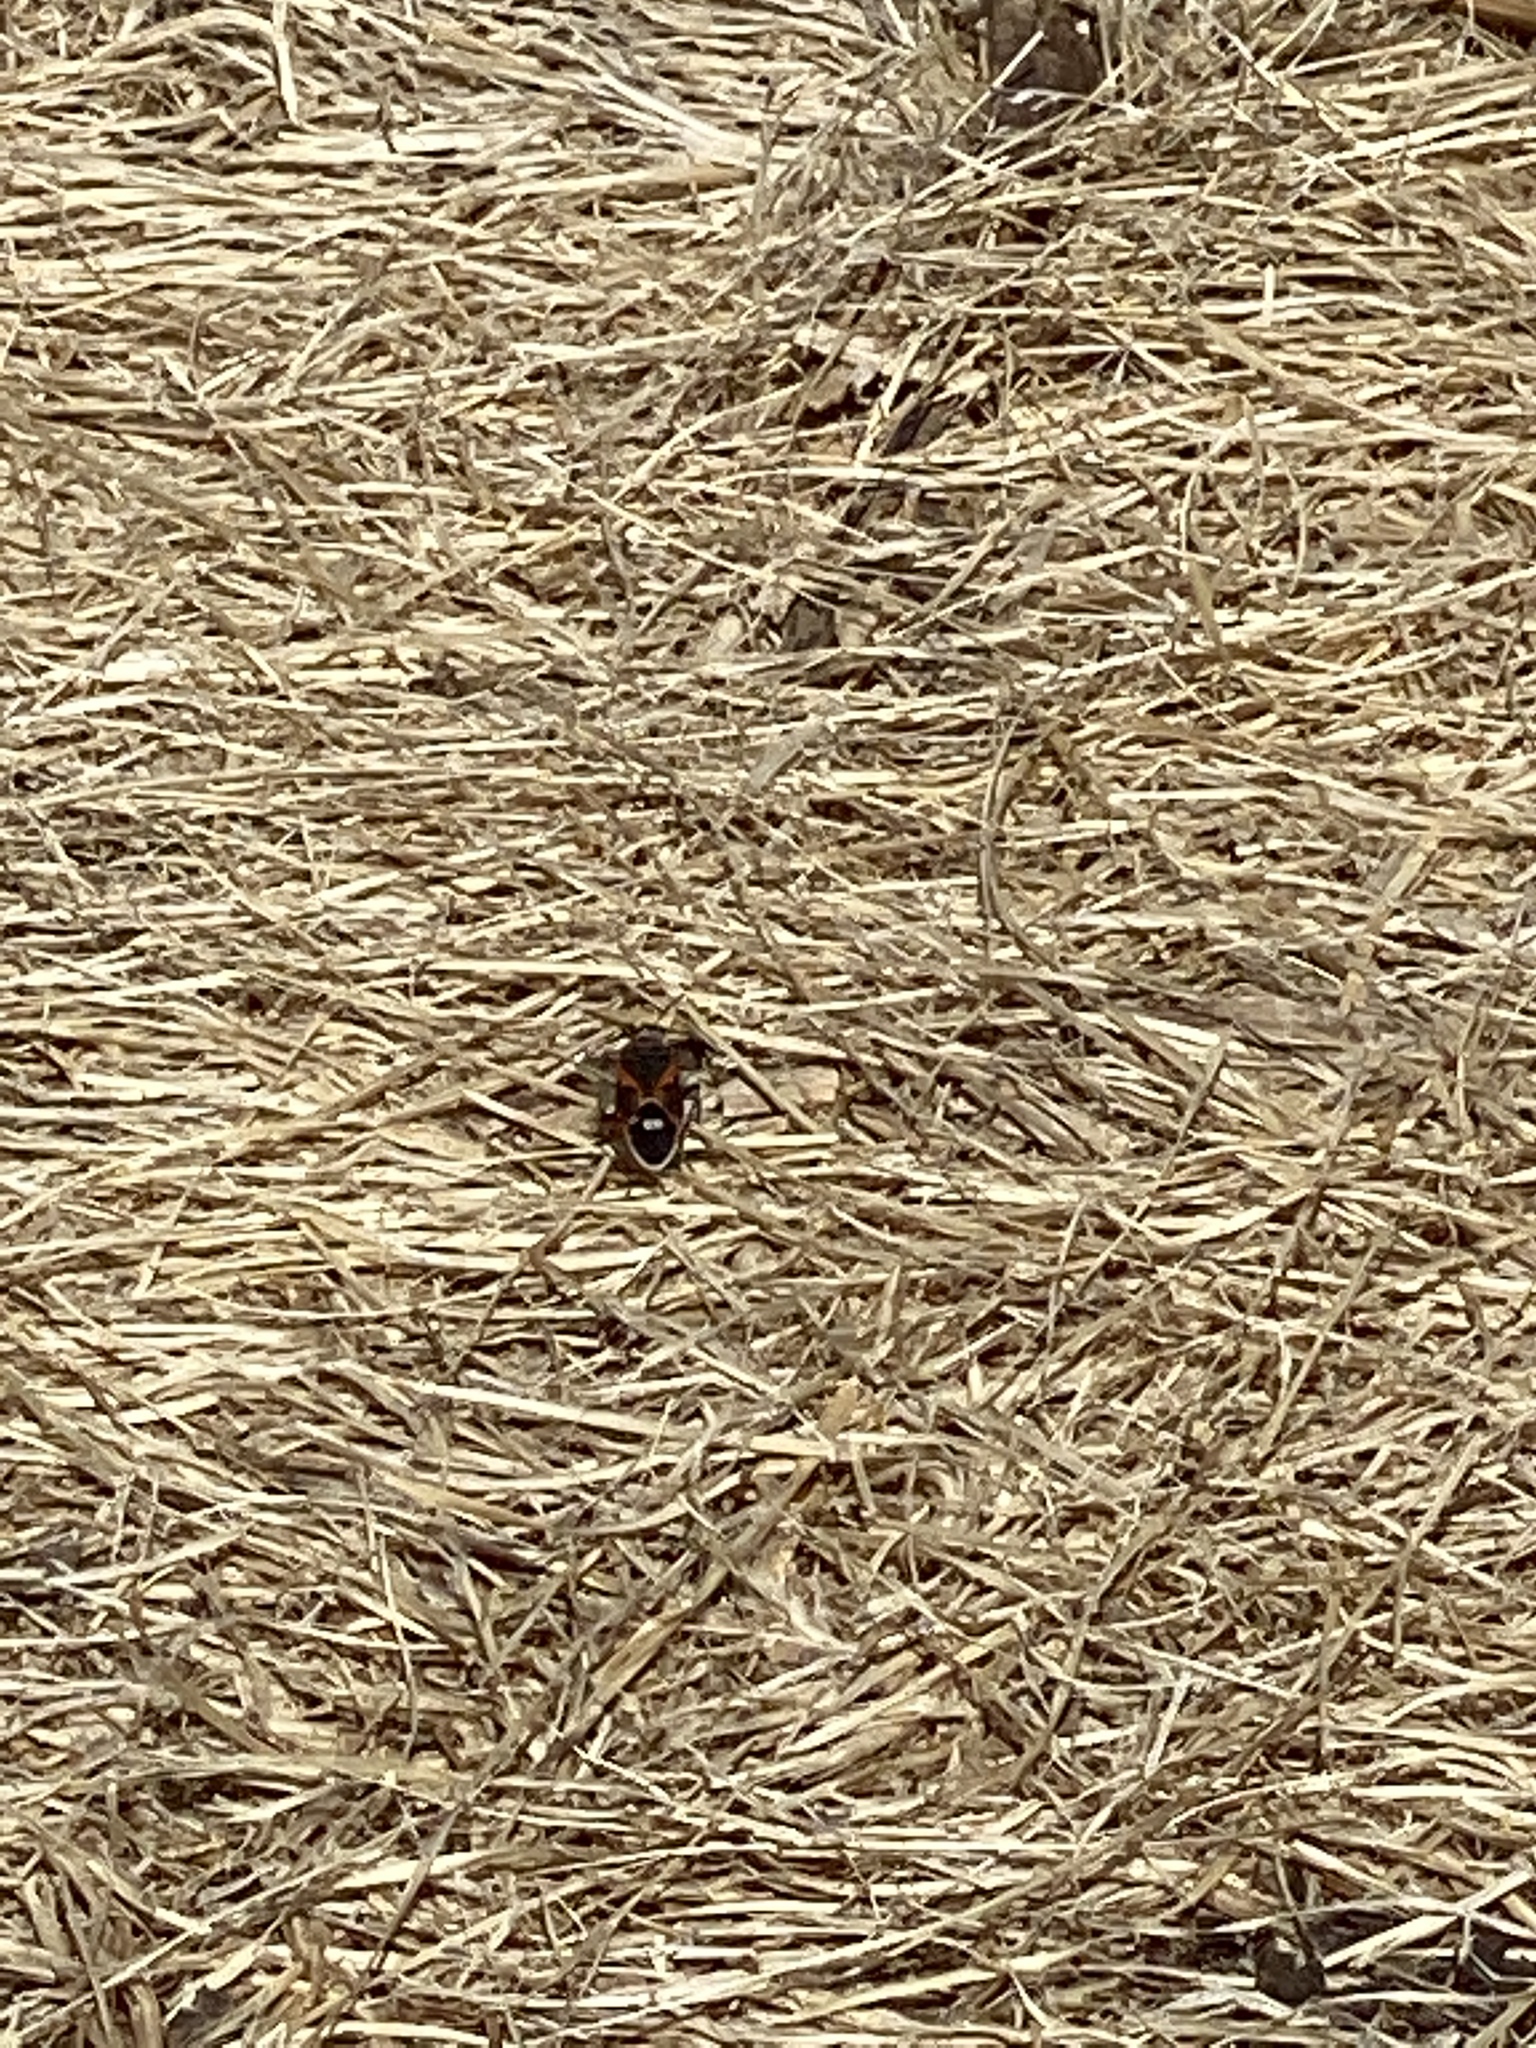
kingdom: Animalia
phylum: Arthropoda
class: Insecta
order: Hemiptera
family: Lygaeidae
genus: Lygaeus
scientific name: Lygaeus kalmii
